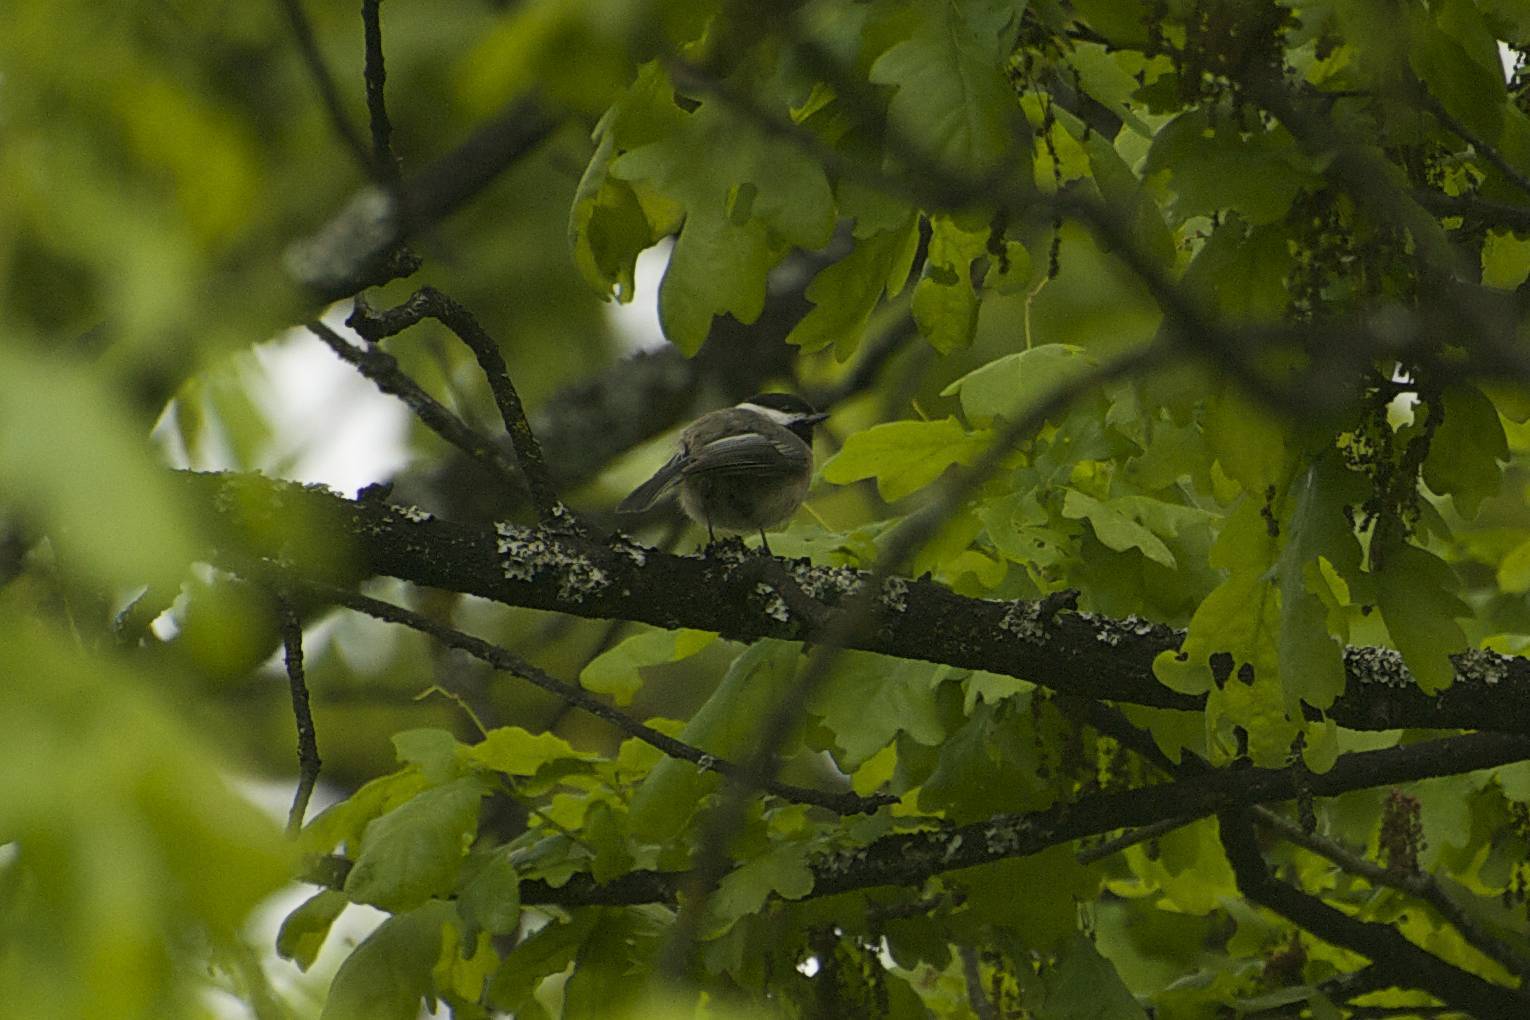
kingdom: Animalia
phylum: Chordata
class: Aves
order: Passeriformes
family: Paridae
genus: Poecile
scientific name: Poecile atricapillus
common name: Black-capped chickadee
